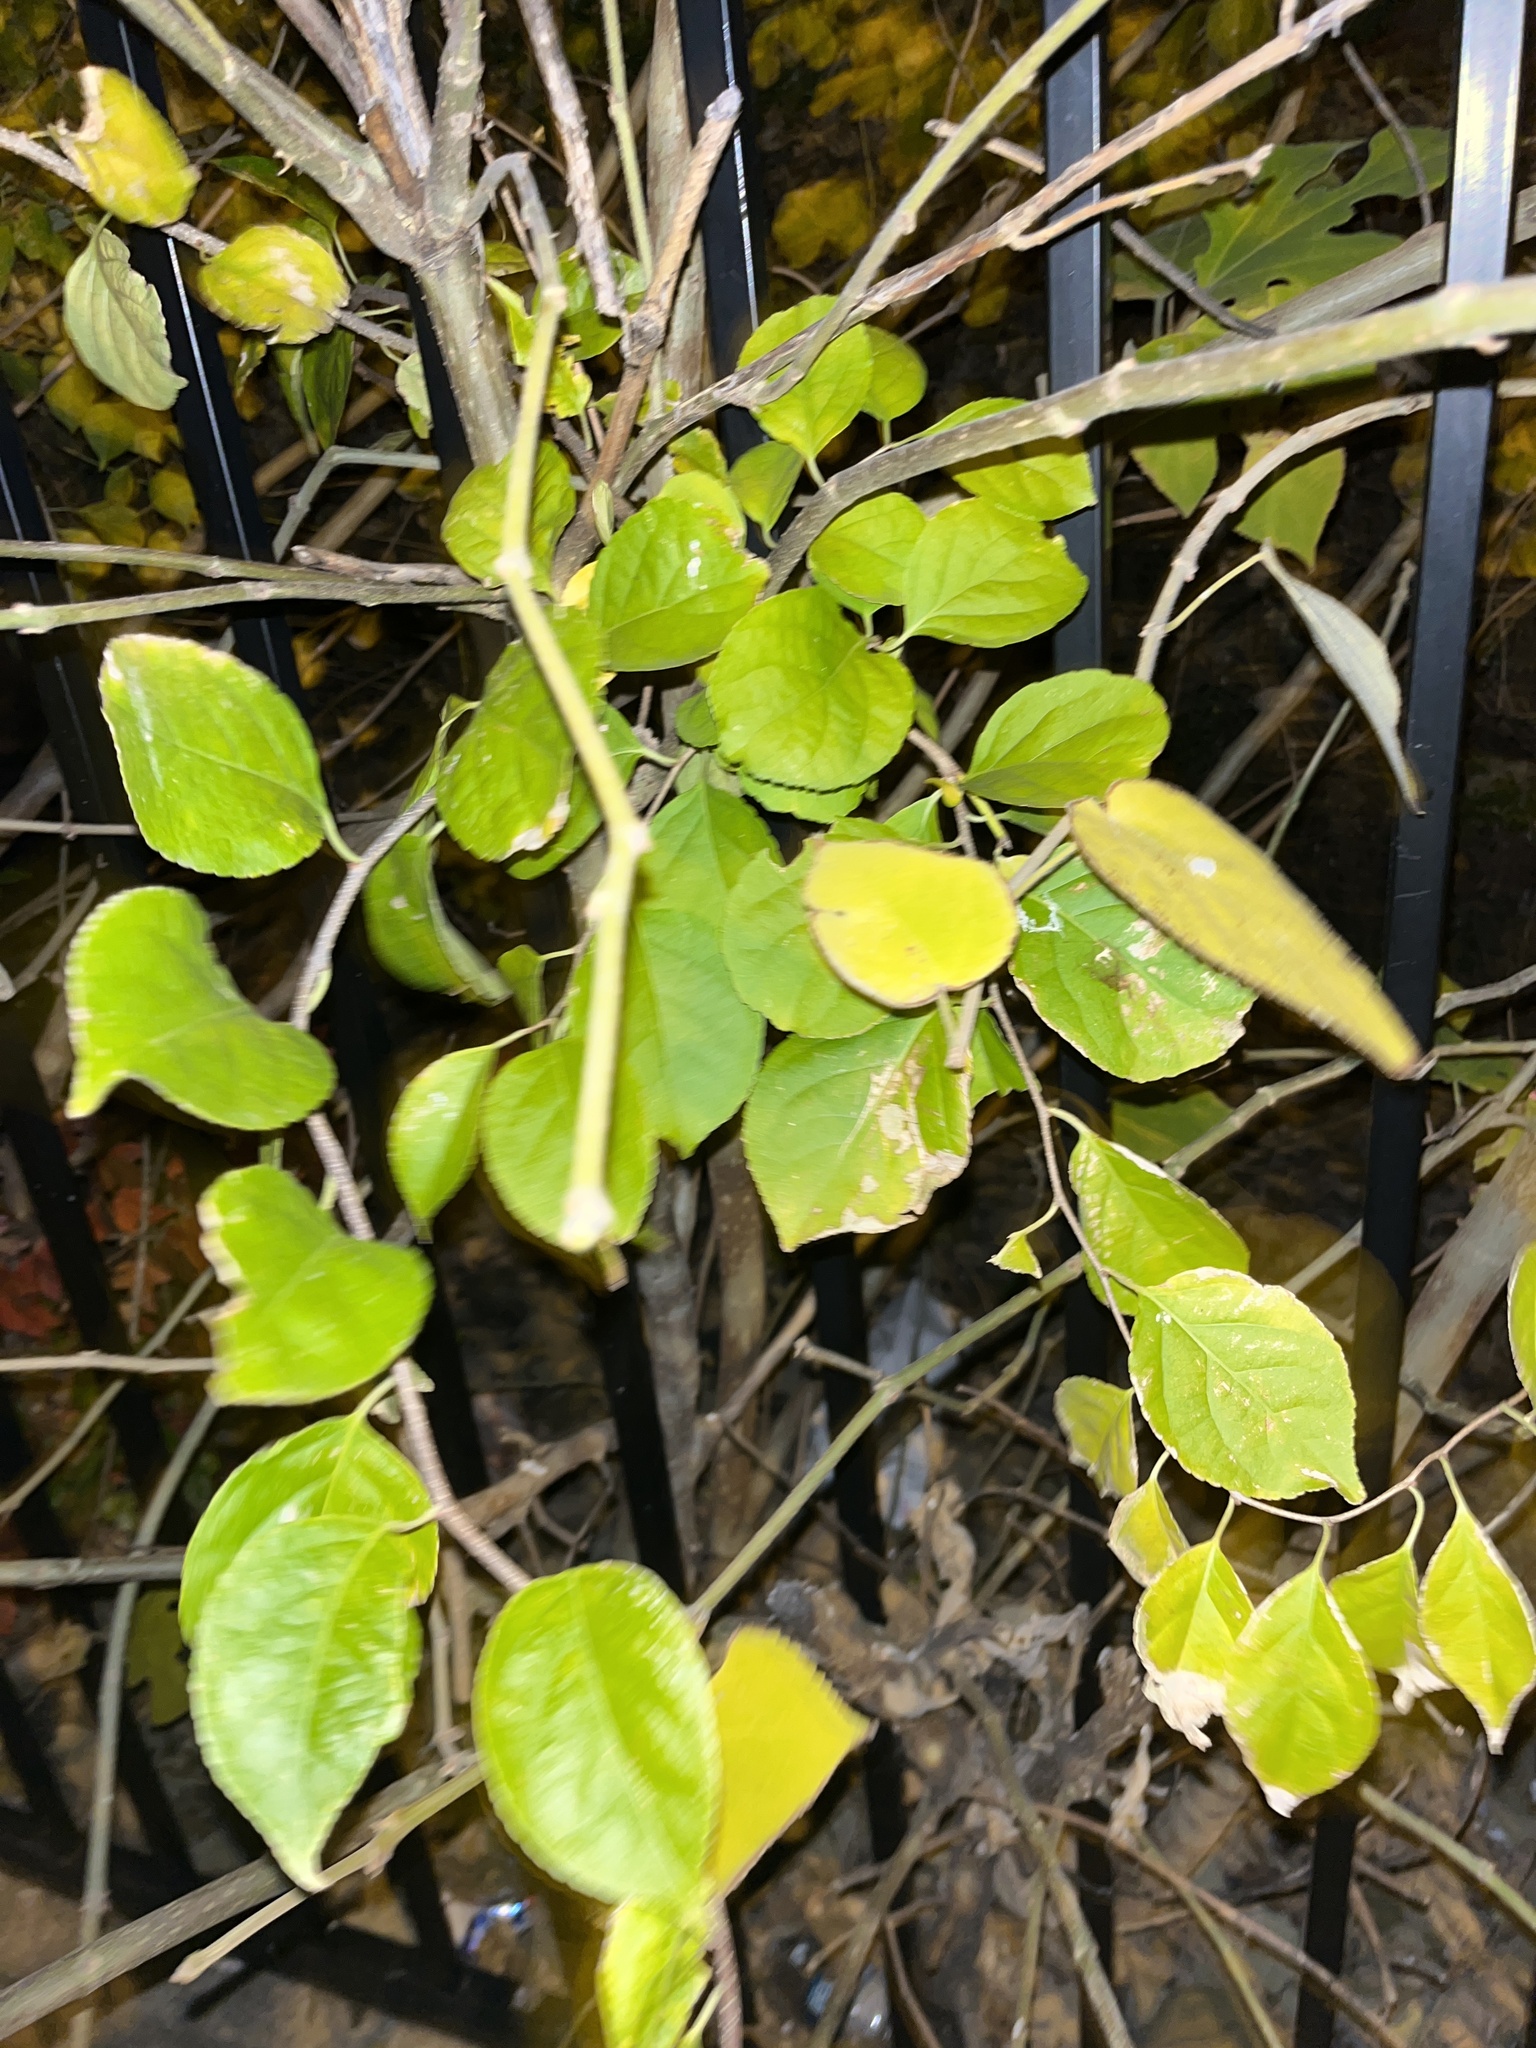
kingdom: Plantae
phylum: Tracheophyta
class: Magnoliopsida
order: Celastrales
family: Celastraceae
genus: Celastrus
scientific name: Celastrus orbiculatus
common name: Oriental bittersweet
